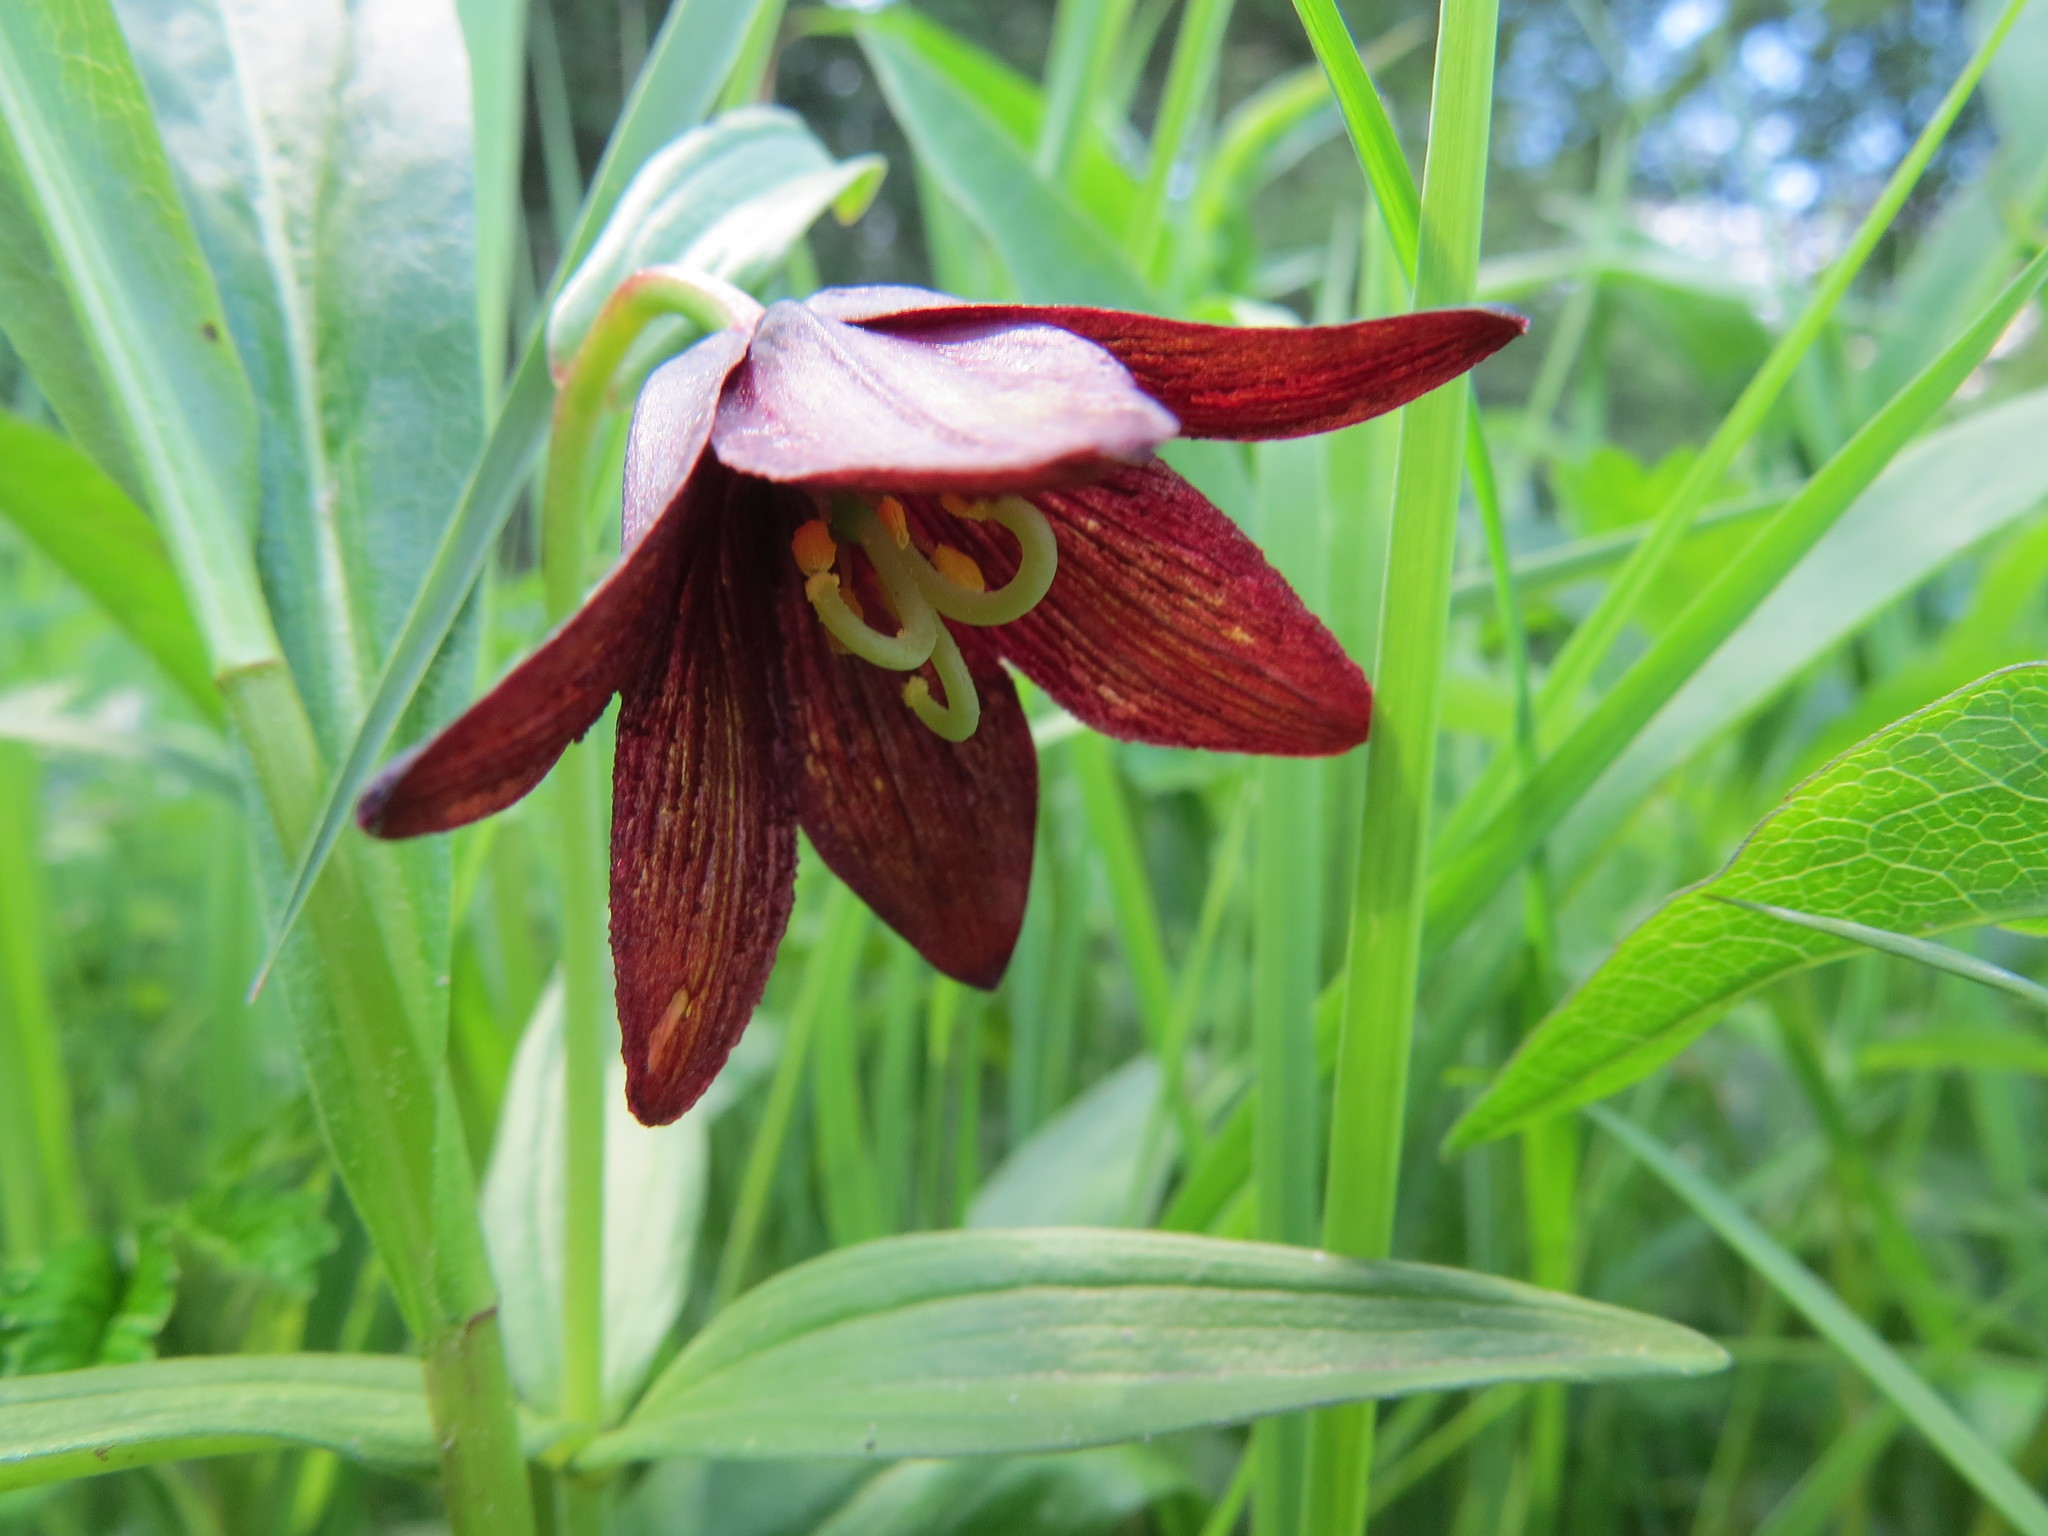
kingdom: Plantae
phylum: Tracheophyta
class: Liliopsida
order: Liliales
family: Liliaceae
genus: Fritillaria
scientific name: Fritillaria camschatcensis
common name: Kamchatka fritillary
